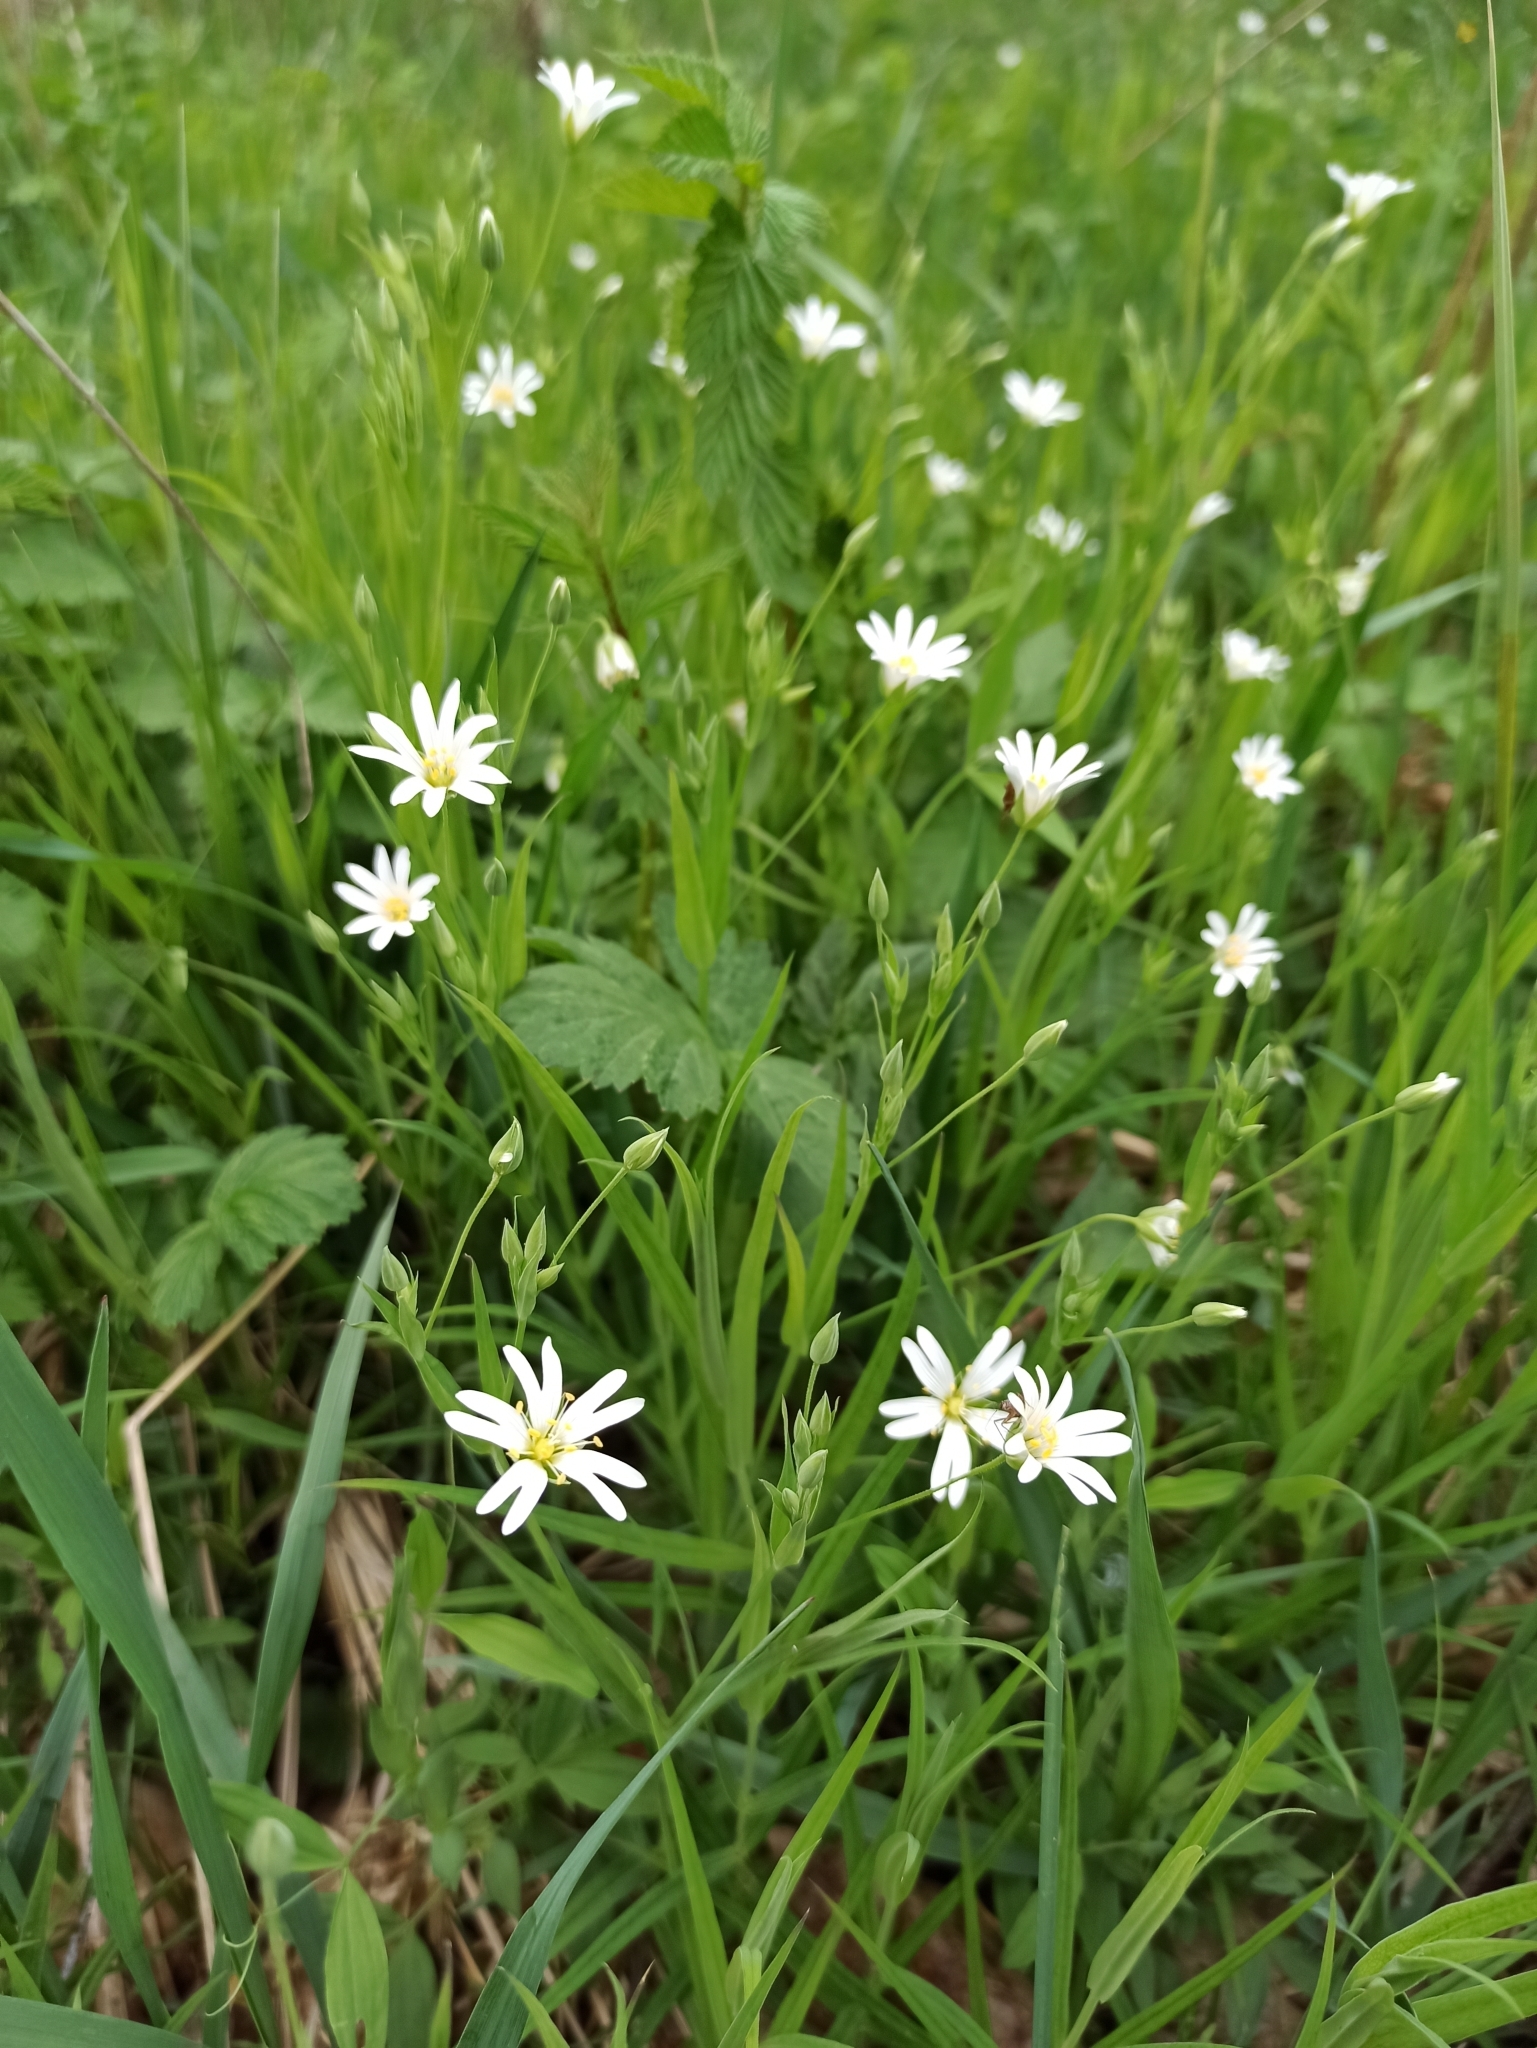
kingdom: Plantae
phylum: Tracheophyta
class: Magnoliopsida
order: Caryophyllales
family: Caryophyllaceae
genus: Rabelera
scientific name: Rabelera holostea
